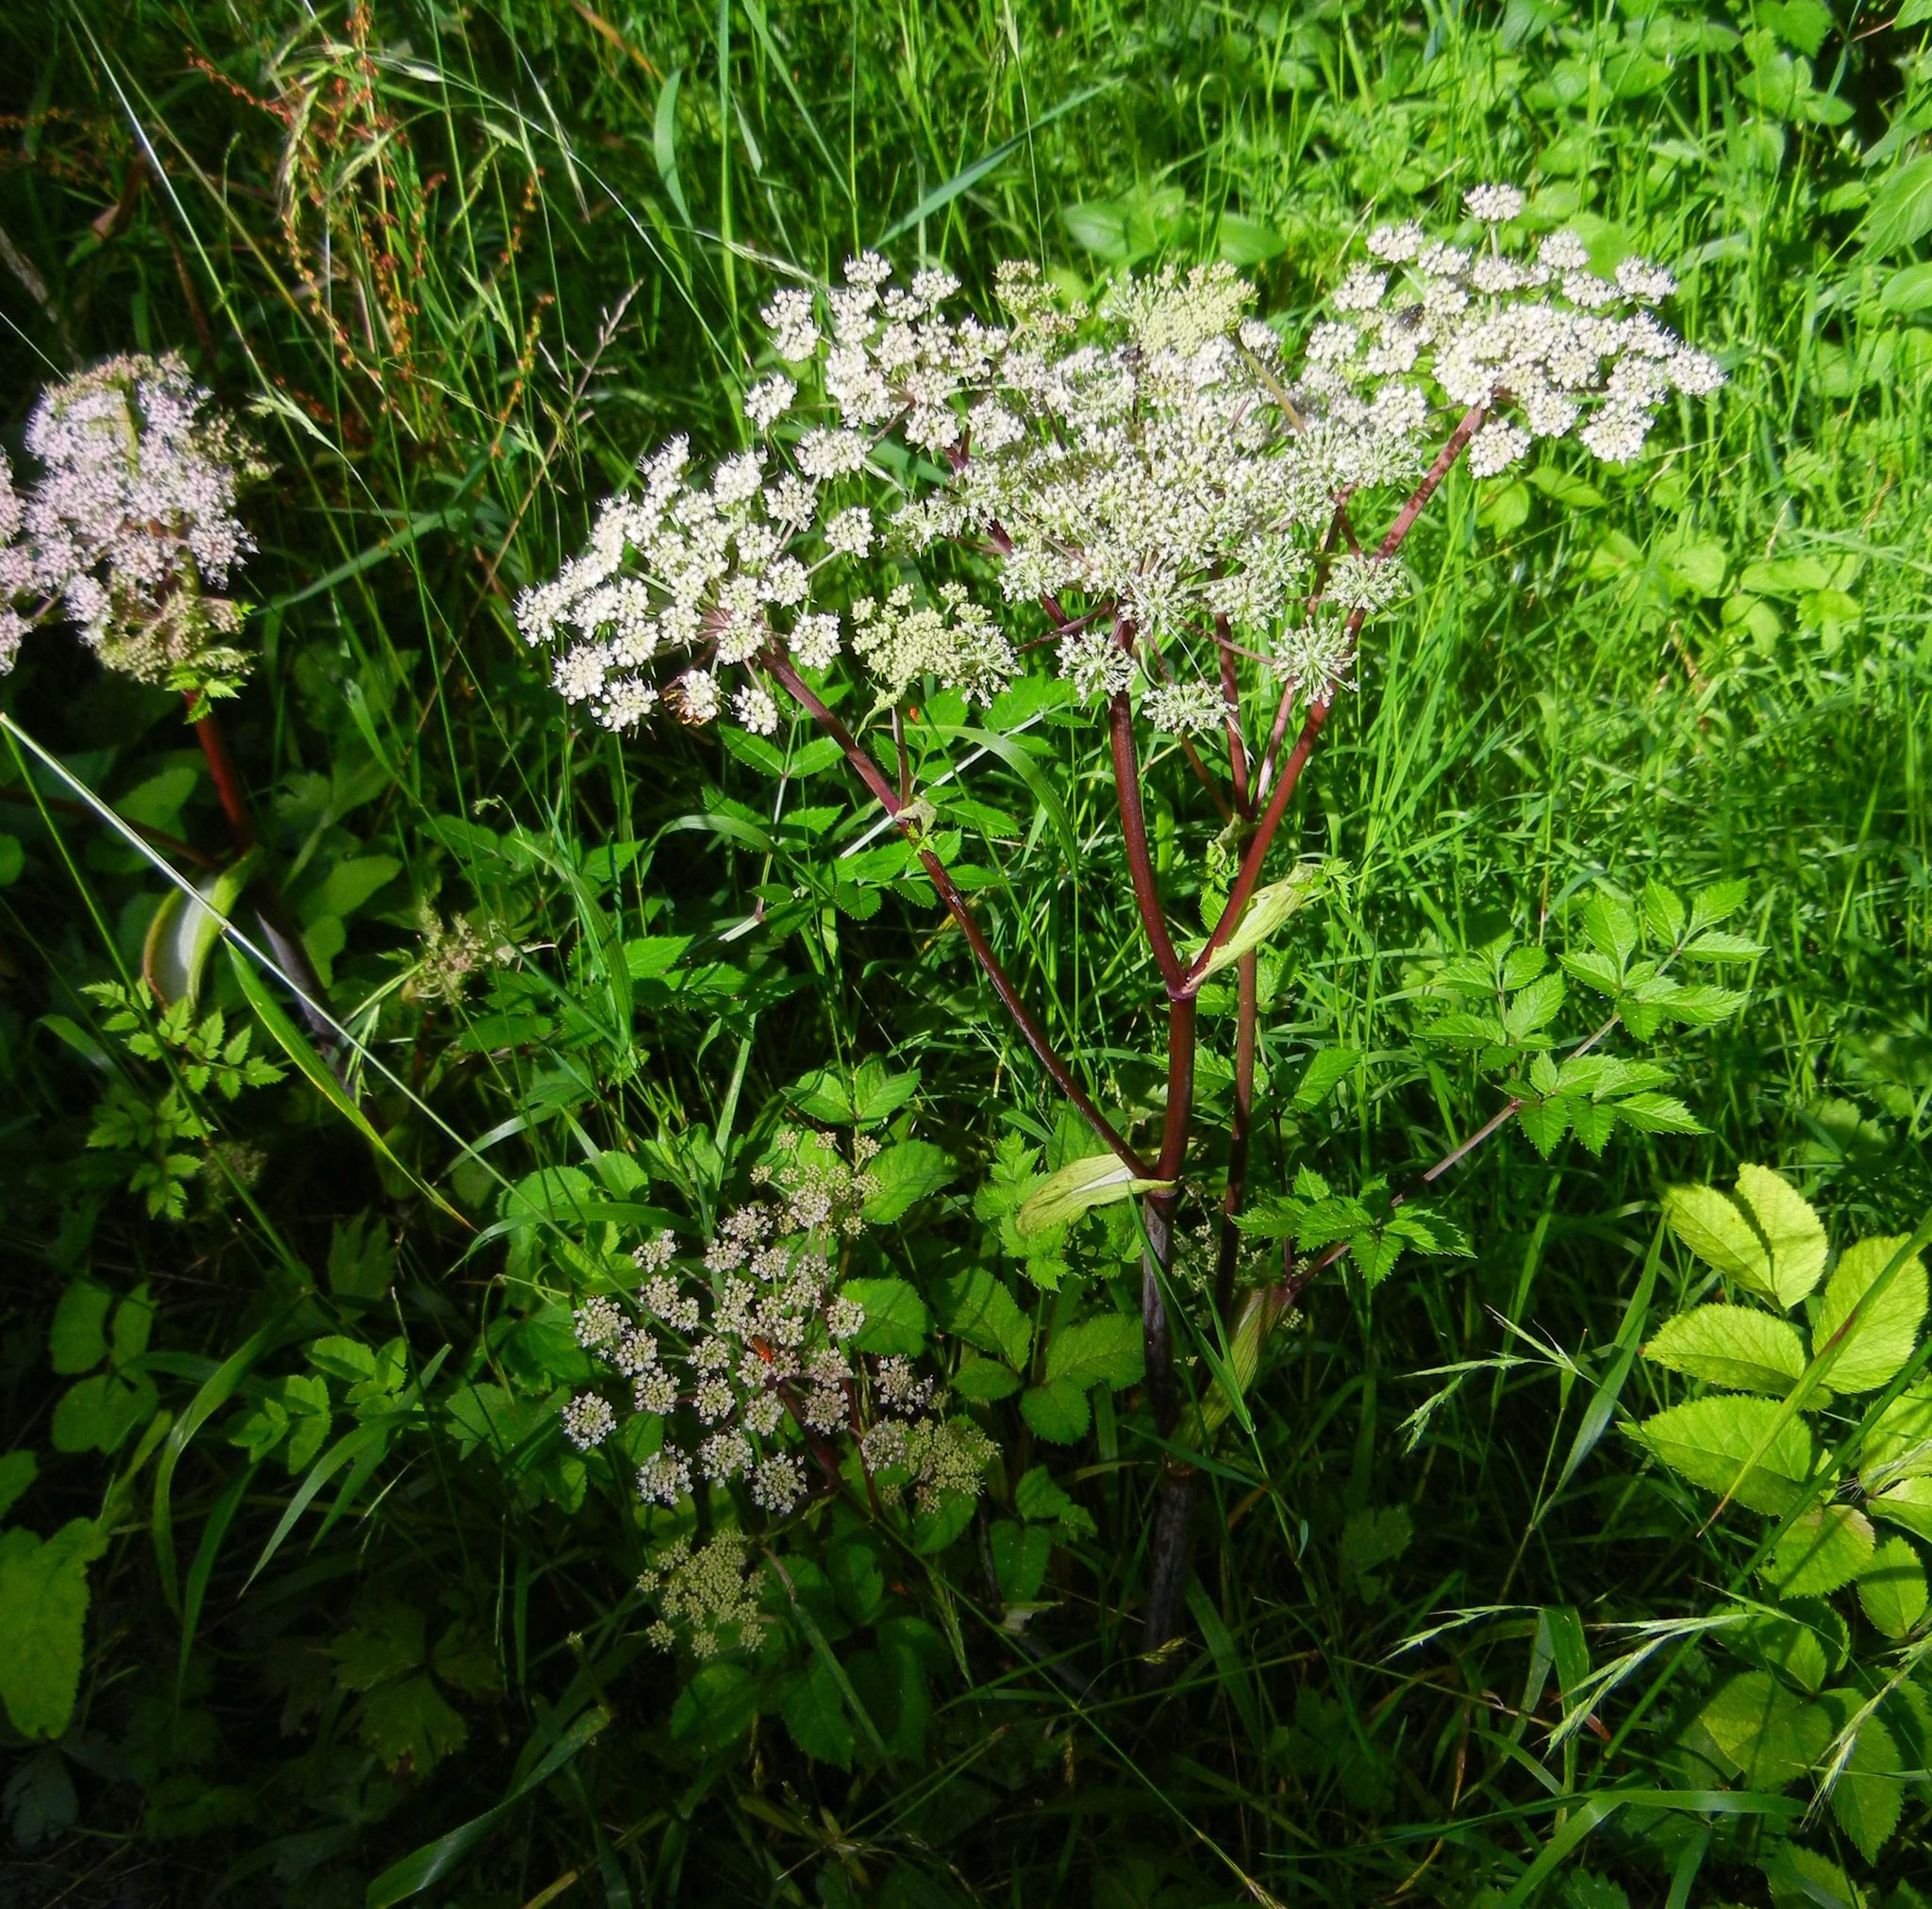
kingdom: Plantae
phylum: Tracheophyta
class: Magnoliopsida
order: Apiales
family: Apiaceae
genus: Angelica
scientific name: Angelica sylvestris
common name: Wild angelica
